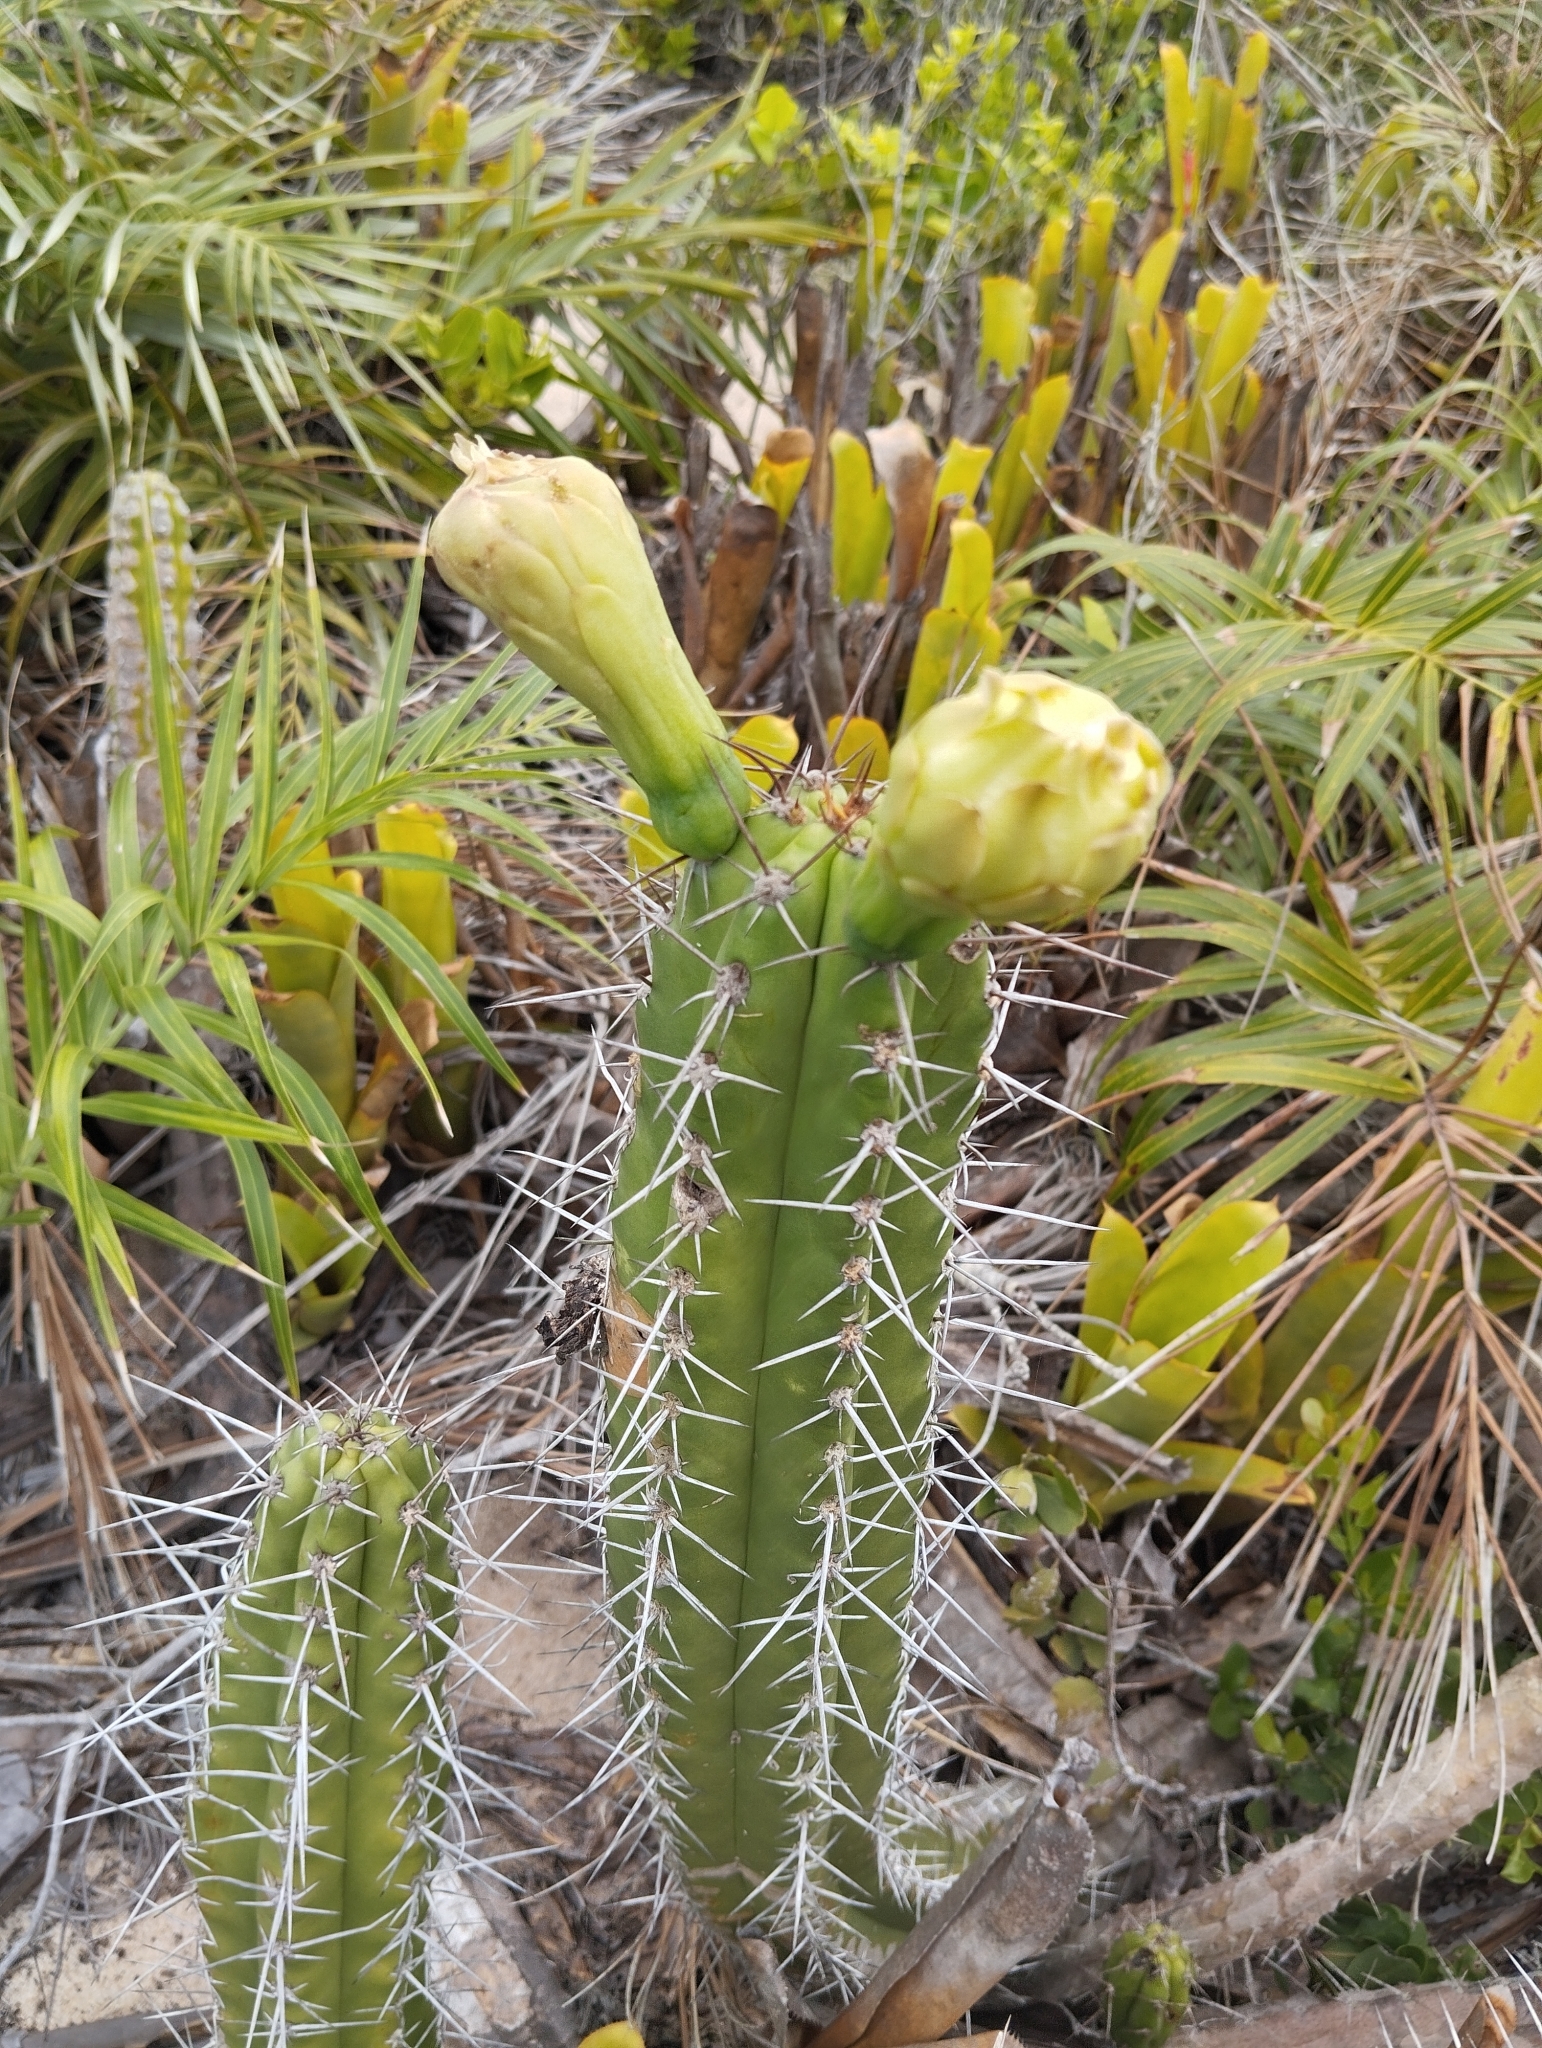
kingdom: Plantae
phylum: Tracheophyta
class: Magnoliopsida
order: Caryophyllales
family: Cactaceae
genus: Pilosocereus
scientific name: Pilosocereus arrabidae
